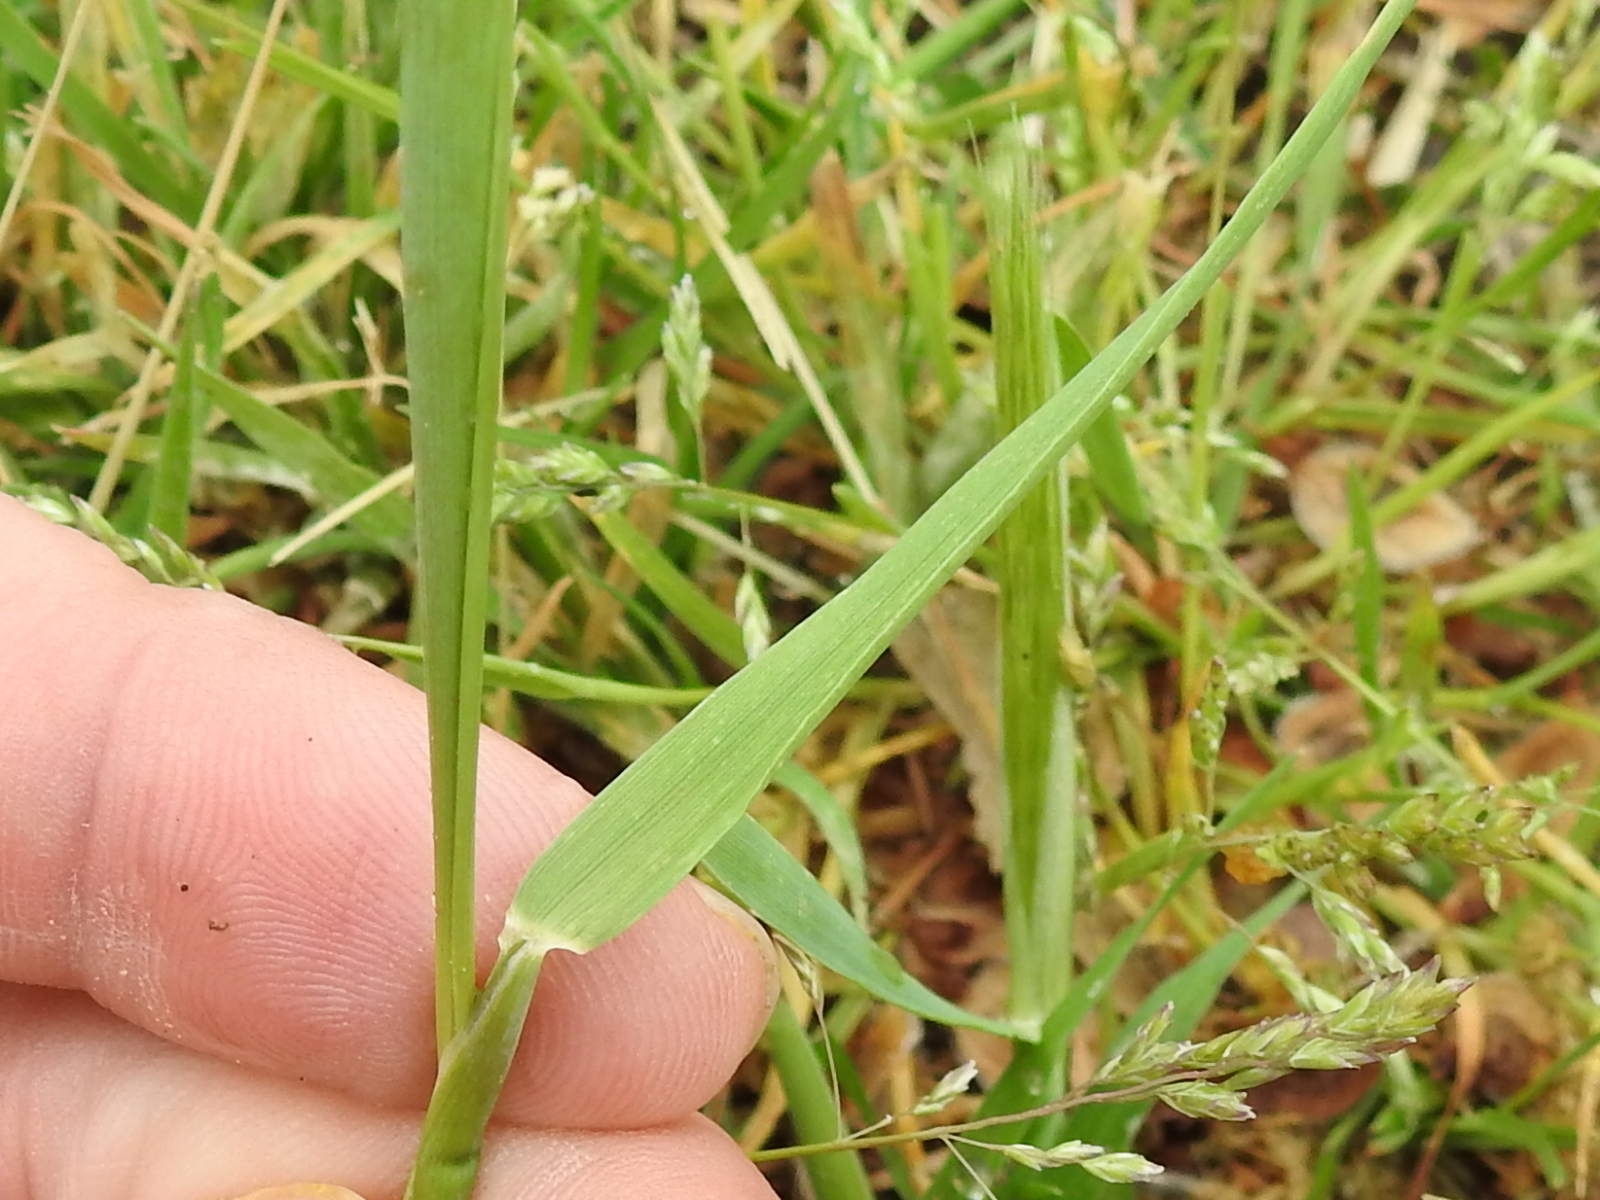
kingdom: Plantae
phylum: Tracheophyta
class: Liliopsida
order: Poales
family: Poaceae
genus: Hordeum
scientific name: Hordeum pusillum
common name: Little barley
